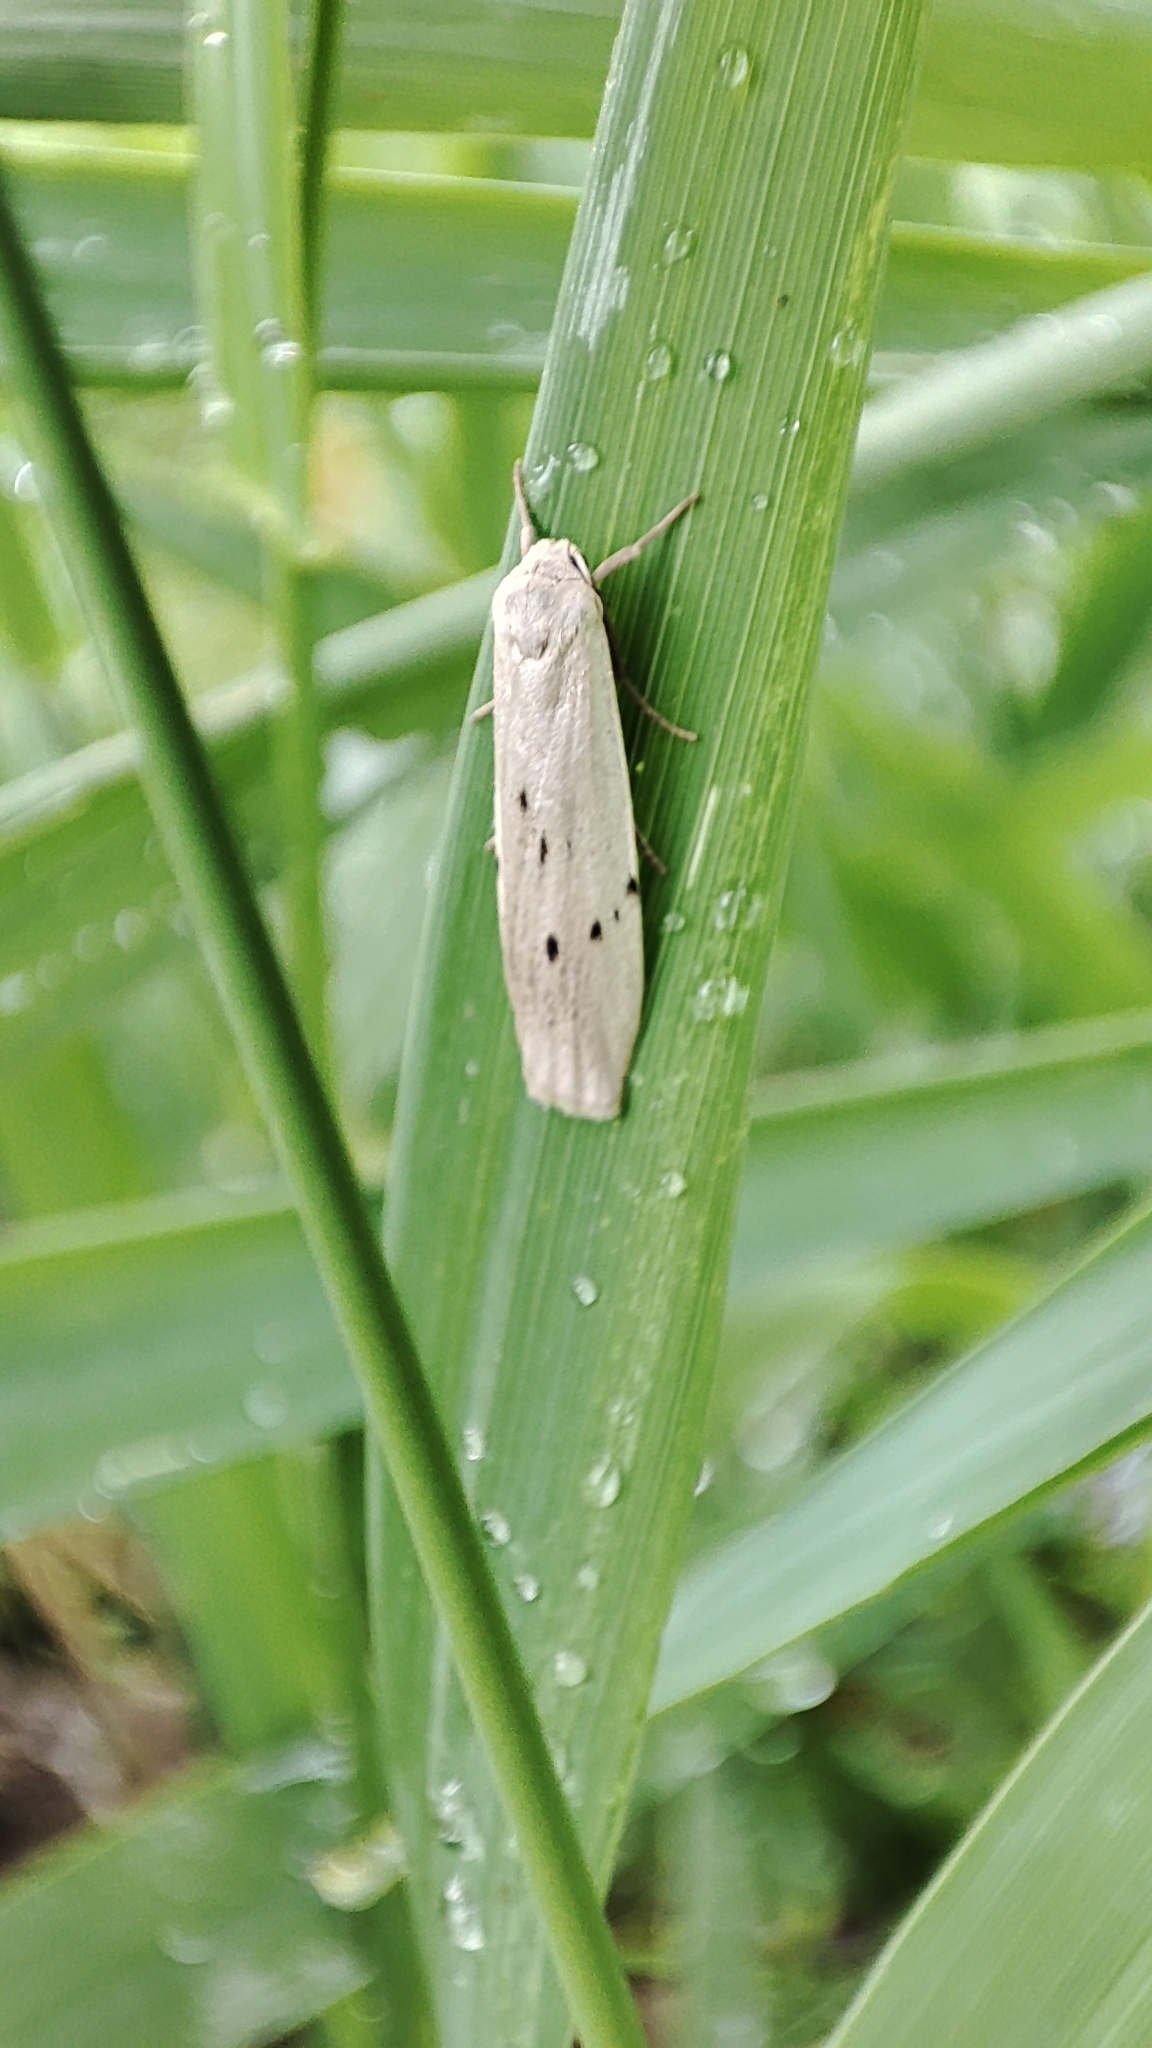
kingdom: Animalia
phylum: Arthropoda
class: Insecta
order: Lepidoptera
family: Erebidae
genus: Pelosia
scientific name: Pelosia muscerda
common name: Dotted footman
